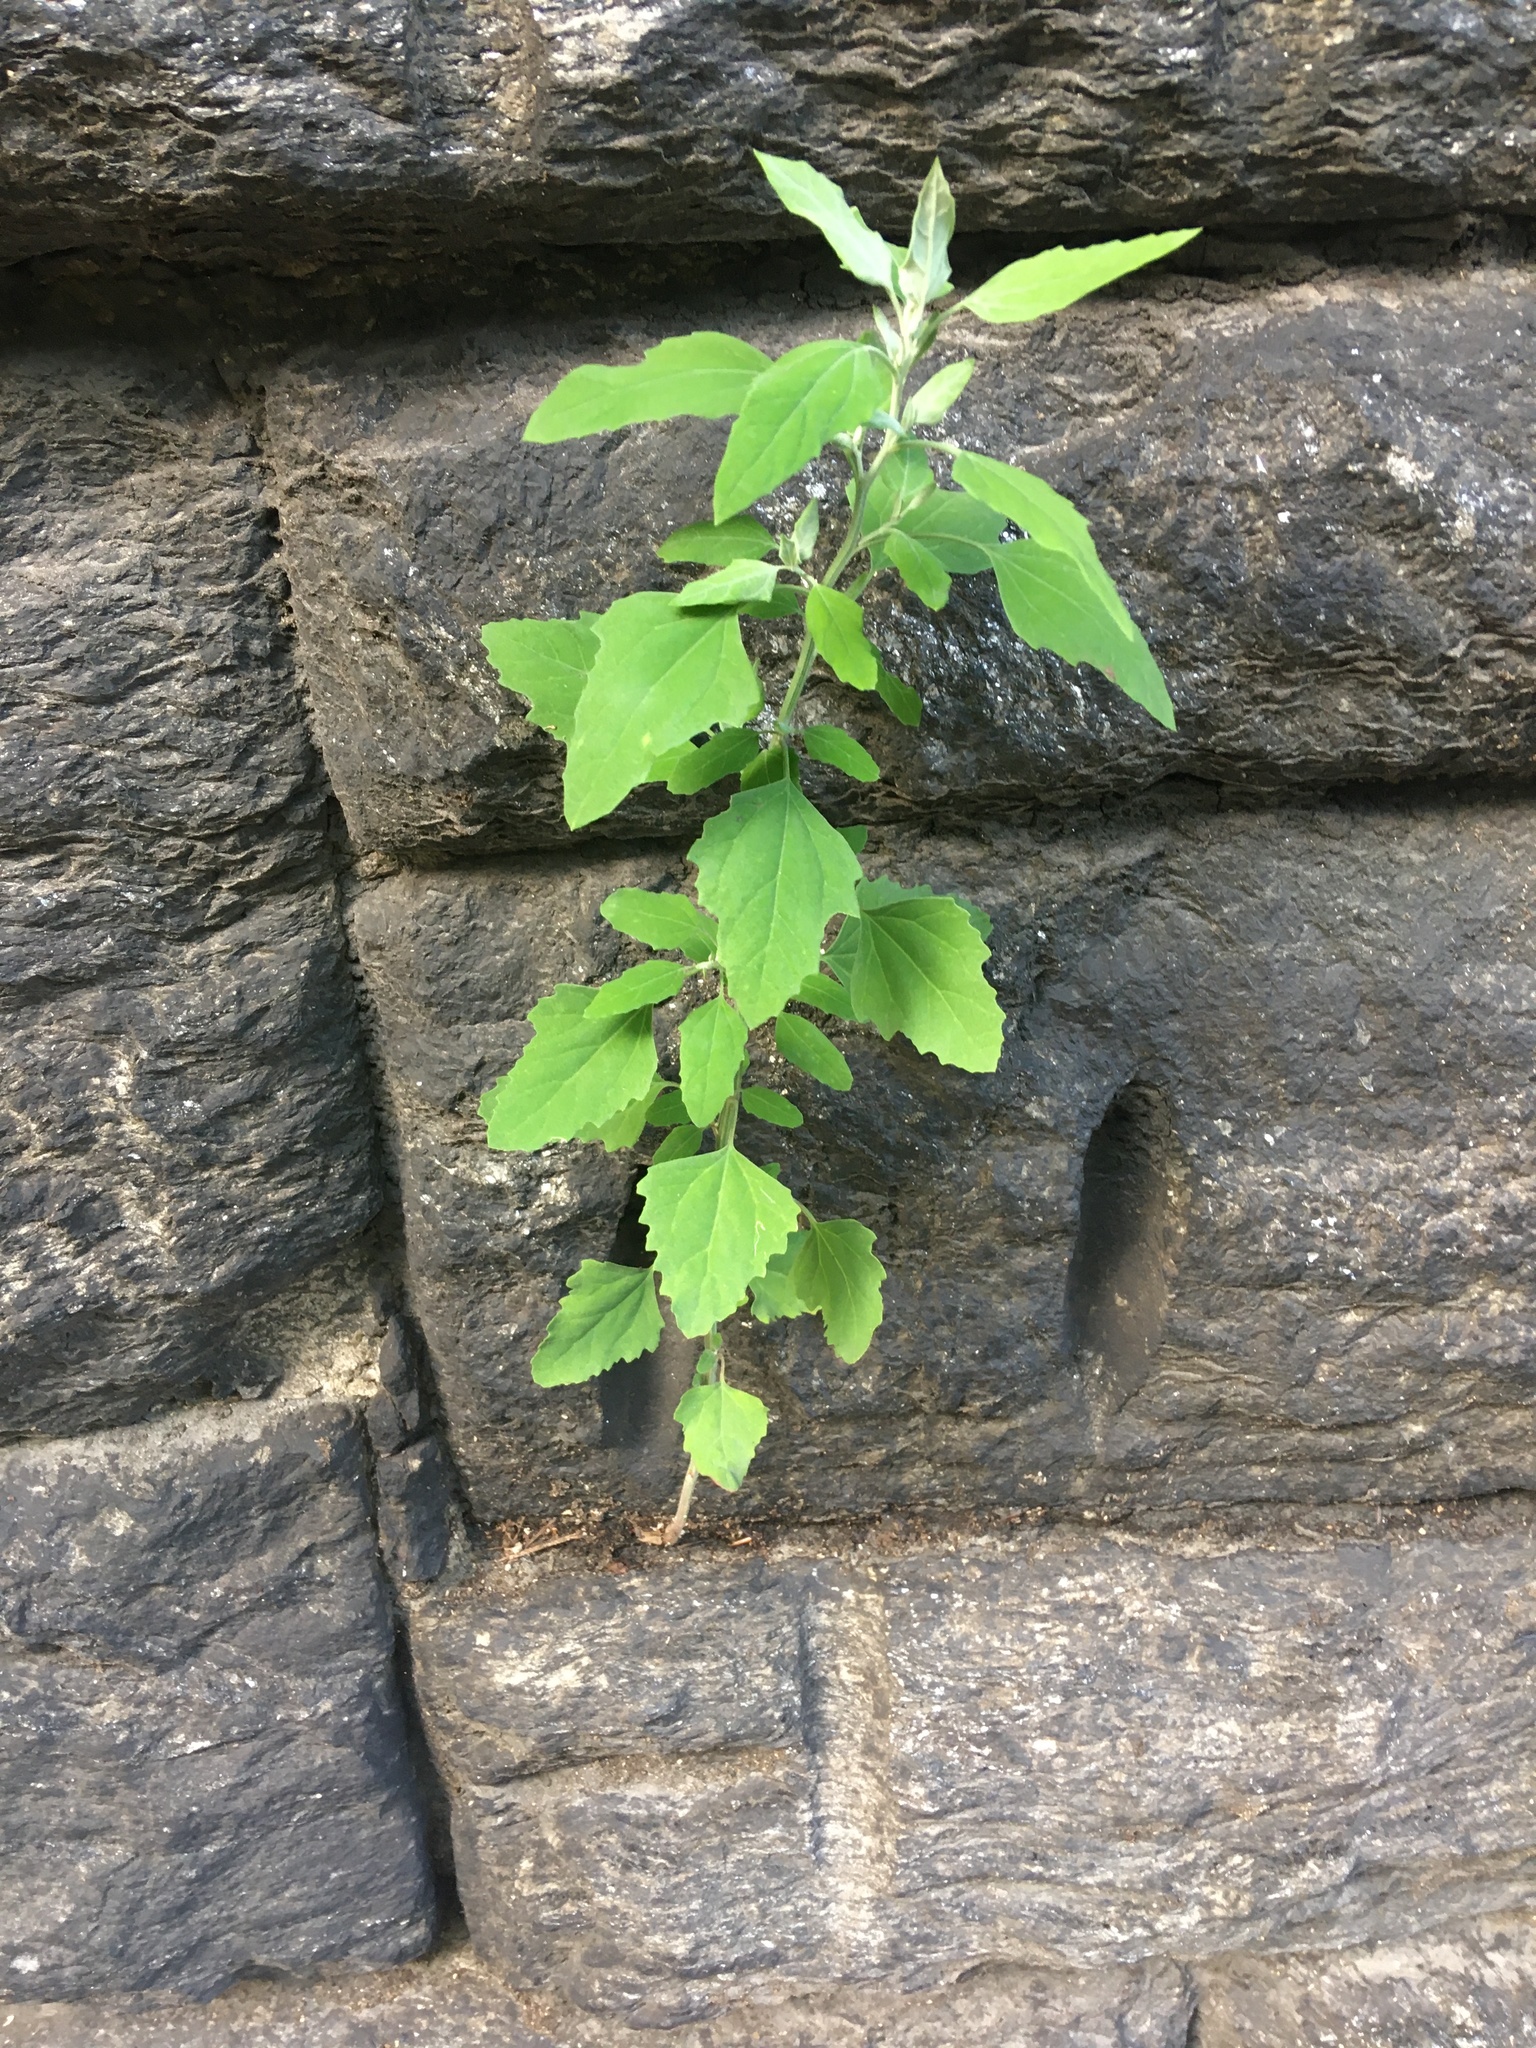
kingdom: Plantae
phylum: Tracheophyta
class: Magnoliopsida
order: Caryophyllales
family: Amaranthaceae
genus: Chenopodium
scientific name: Chenopodium album
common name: Fat-hen
